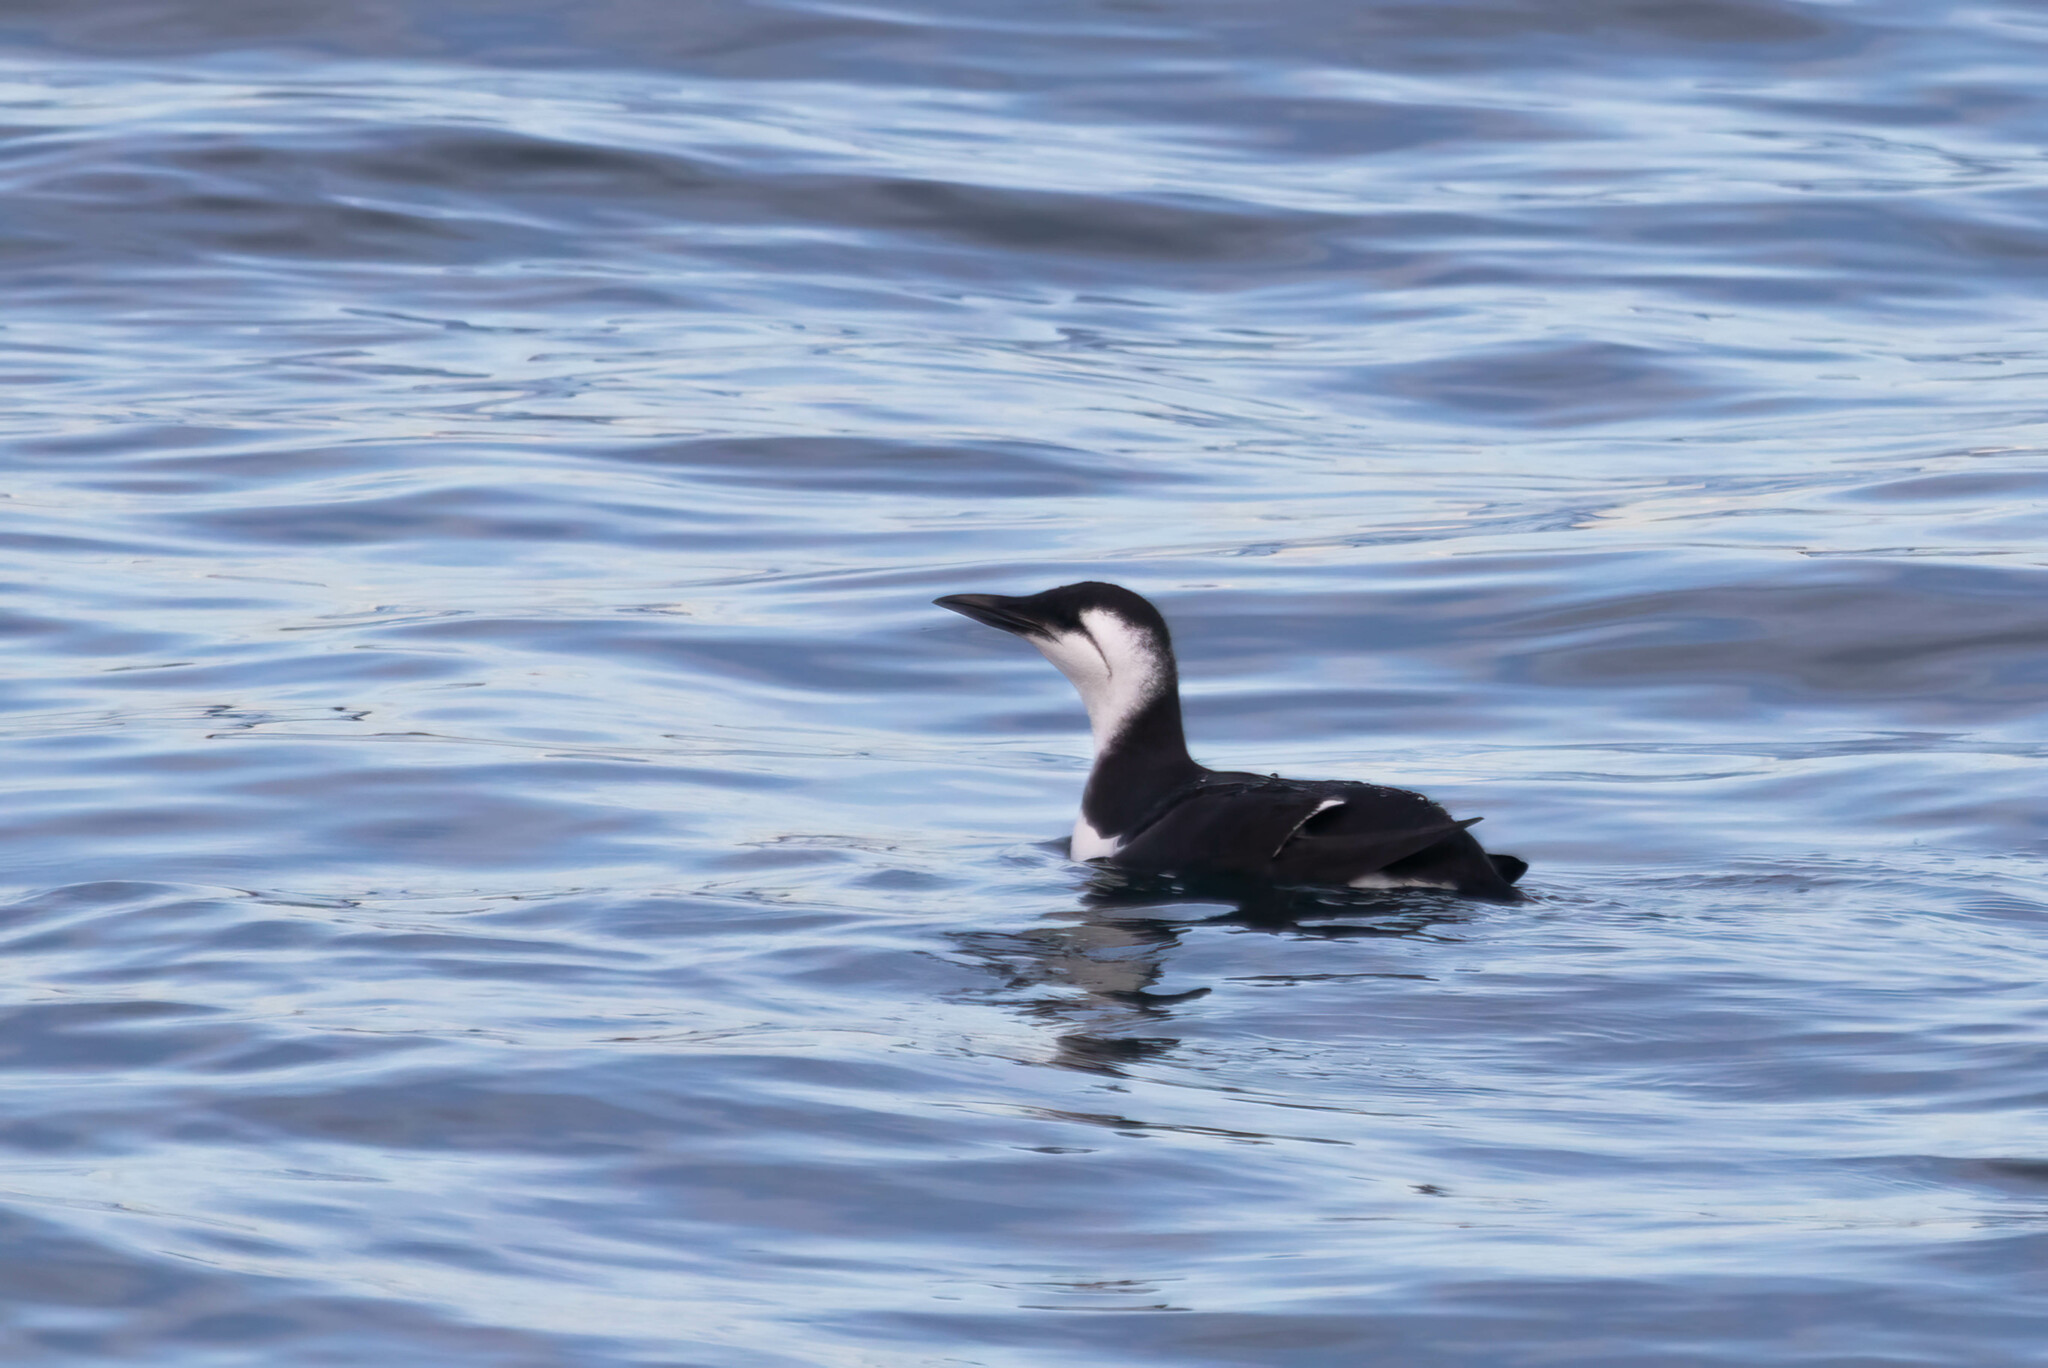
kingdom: Animalia
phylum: Chordata
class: Aves
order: Charadriiformes
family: Alcidae
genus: Uria
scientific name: Uria aalge
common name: Common murre
